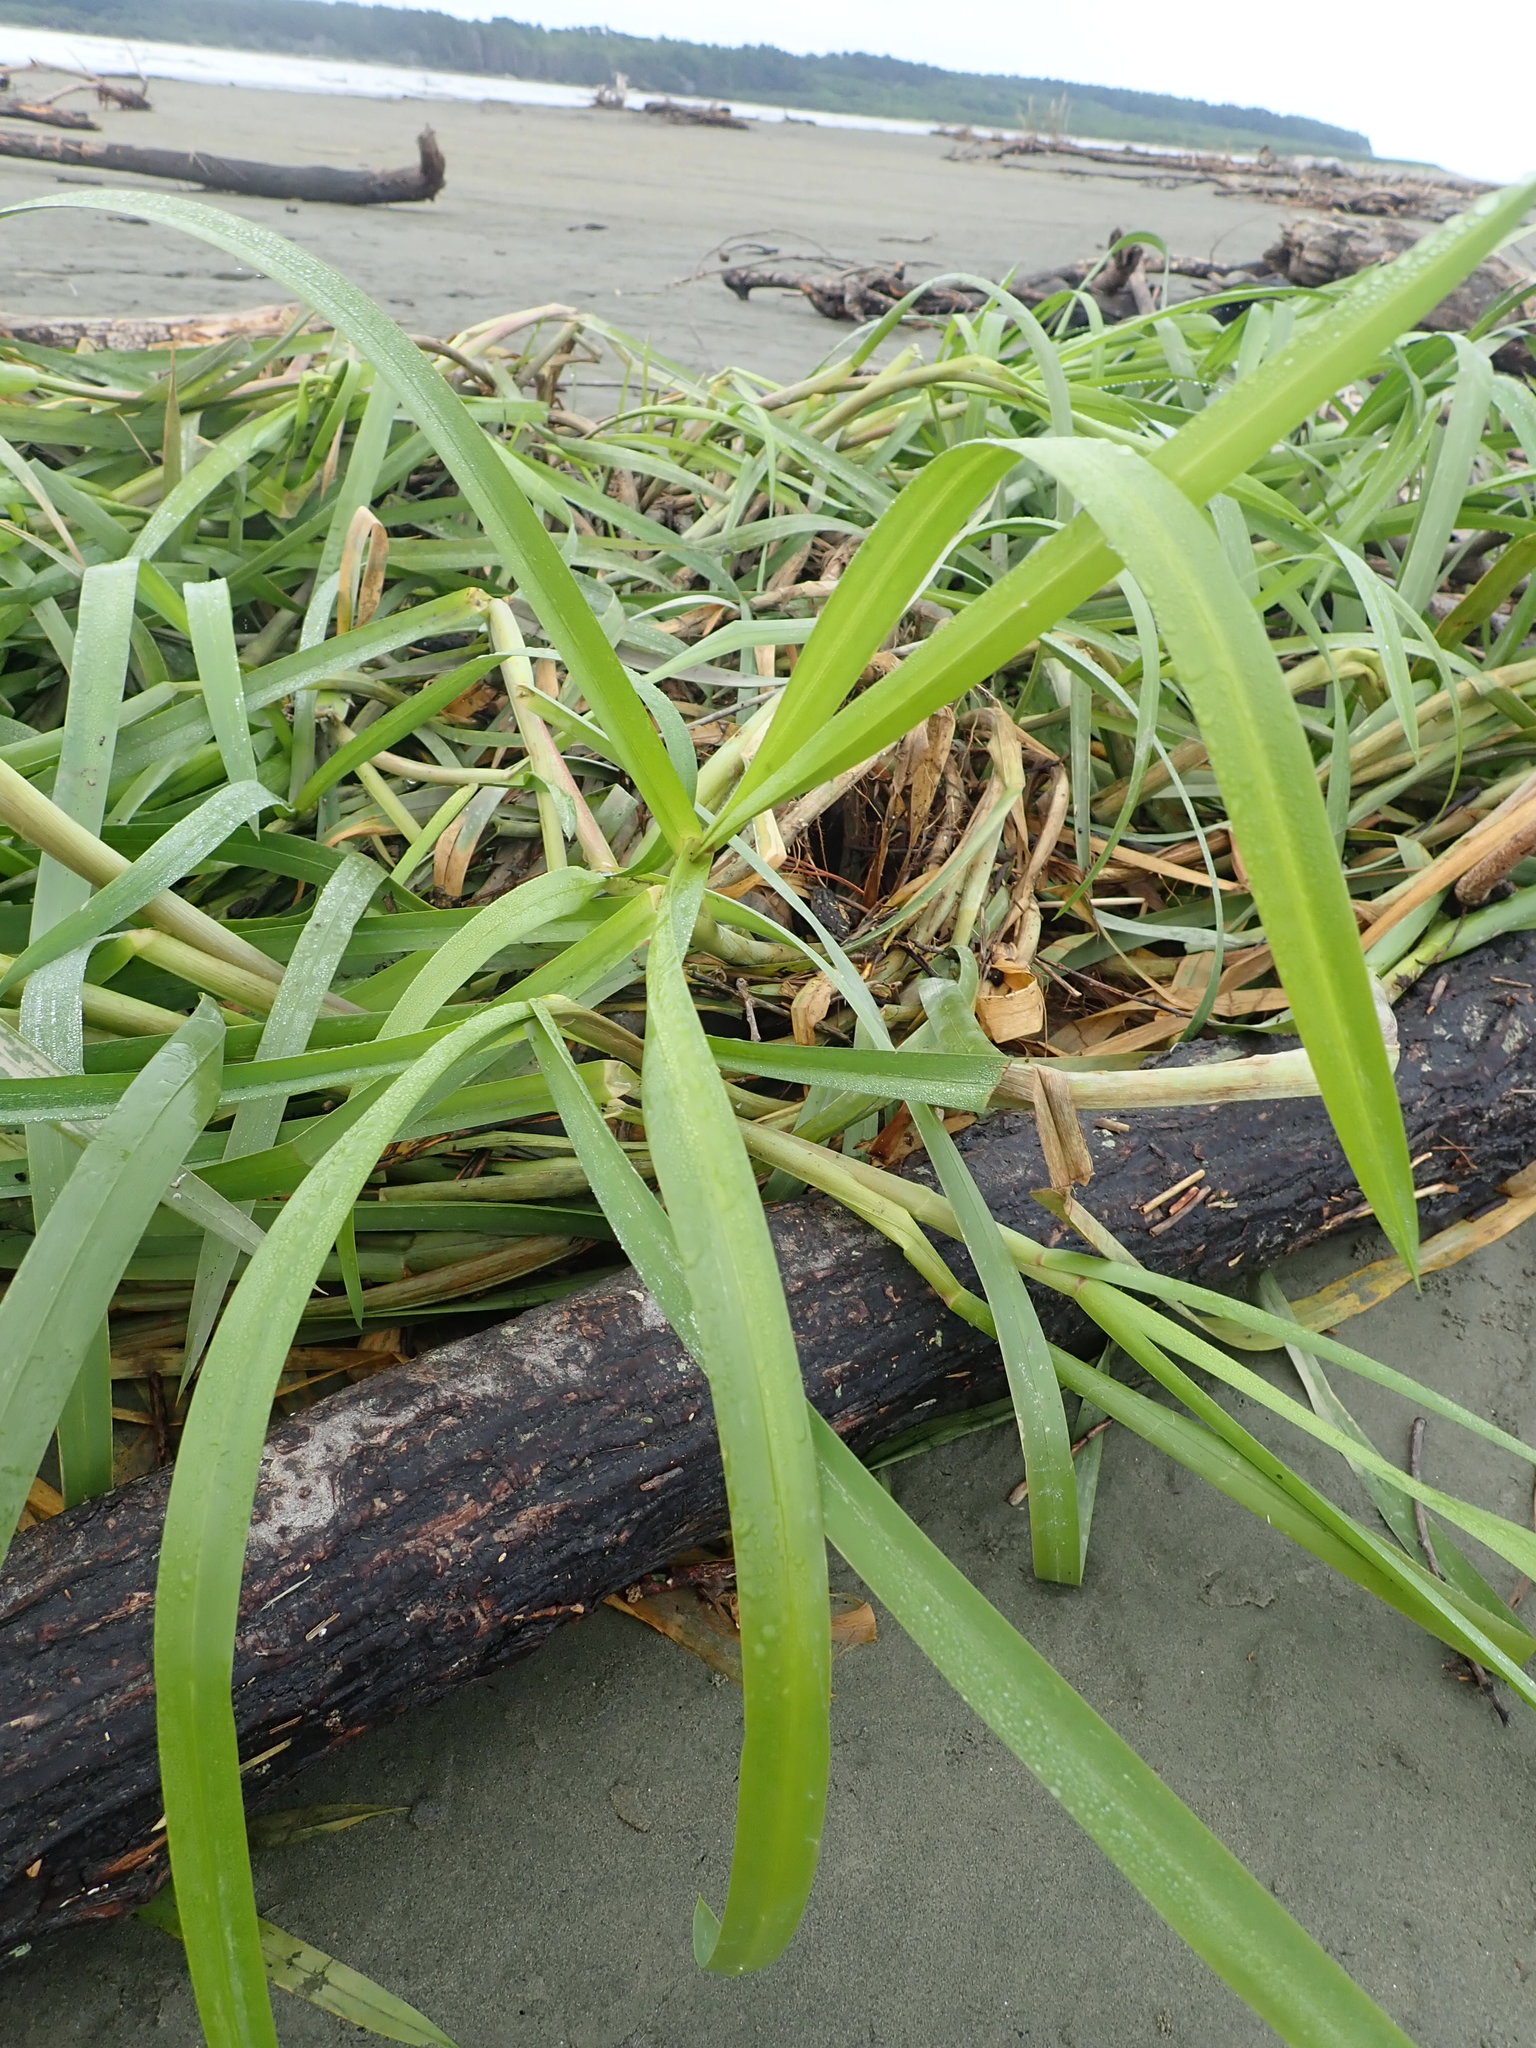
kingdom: Plantae
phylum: Tracheophyta
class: Liliopsida
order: Poales
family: Poaceae
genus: Glyceria
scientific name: Glyceria maxima
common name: Reed mannagrass
